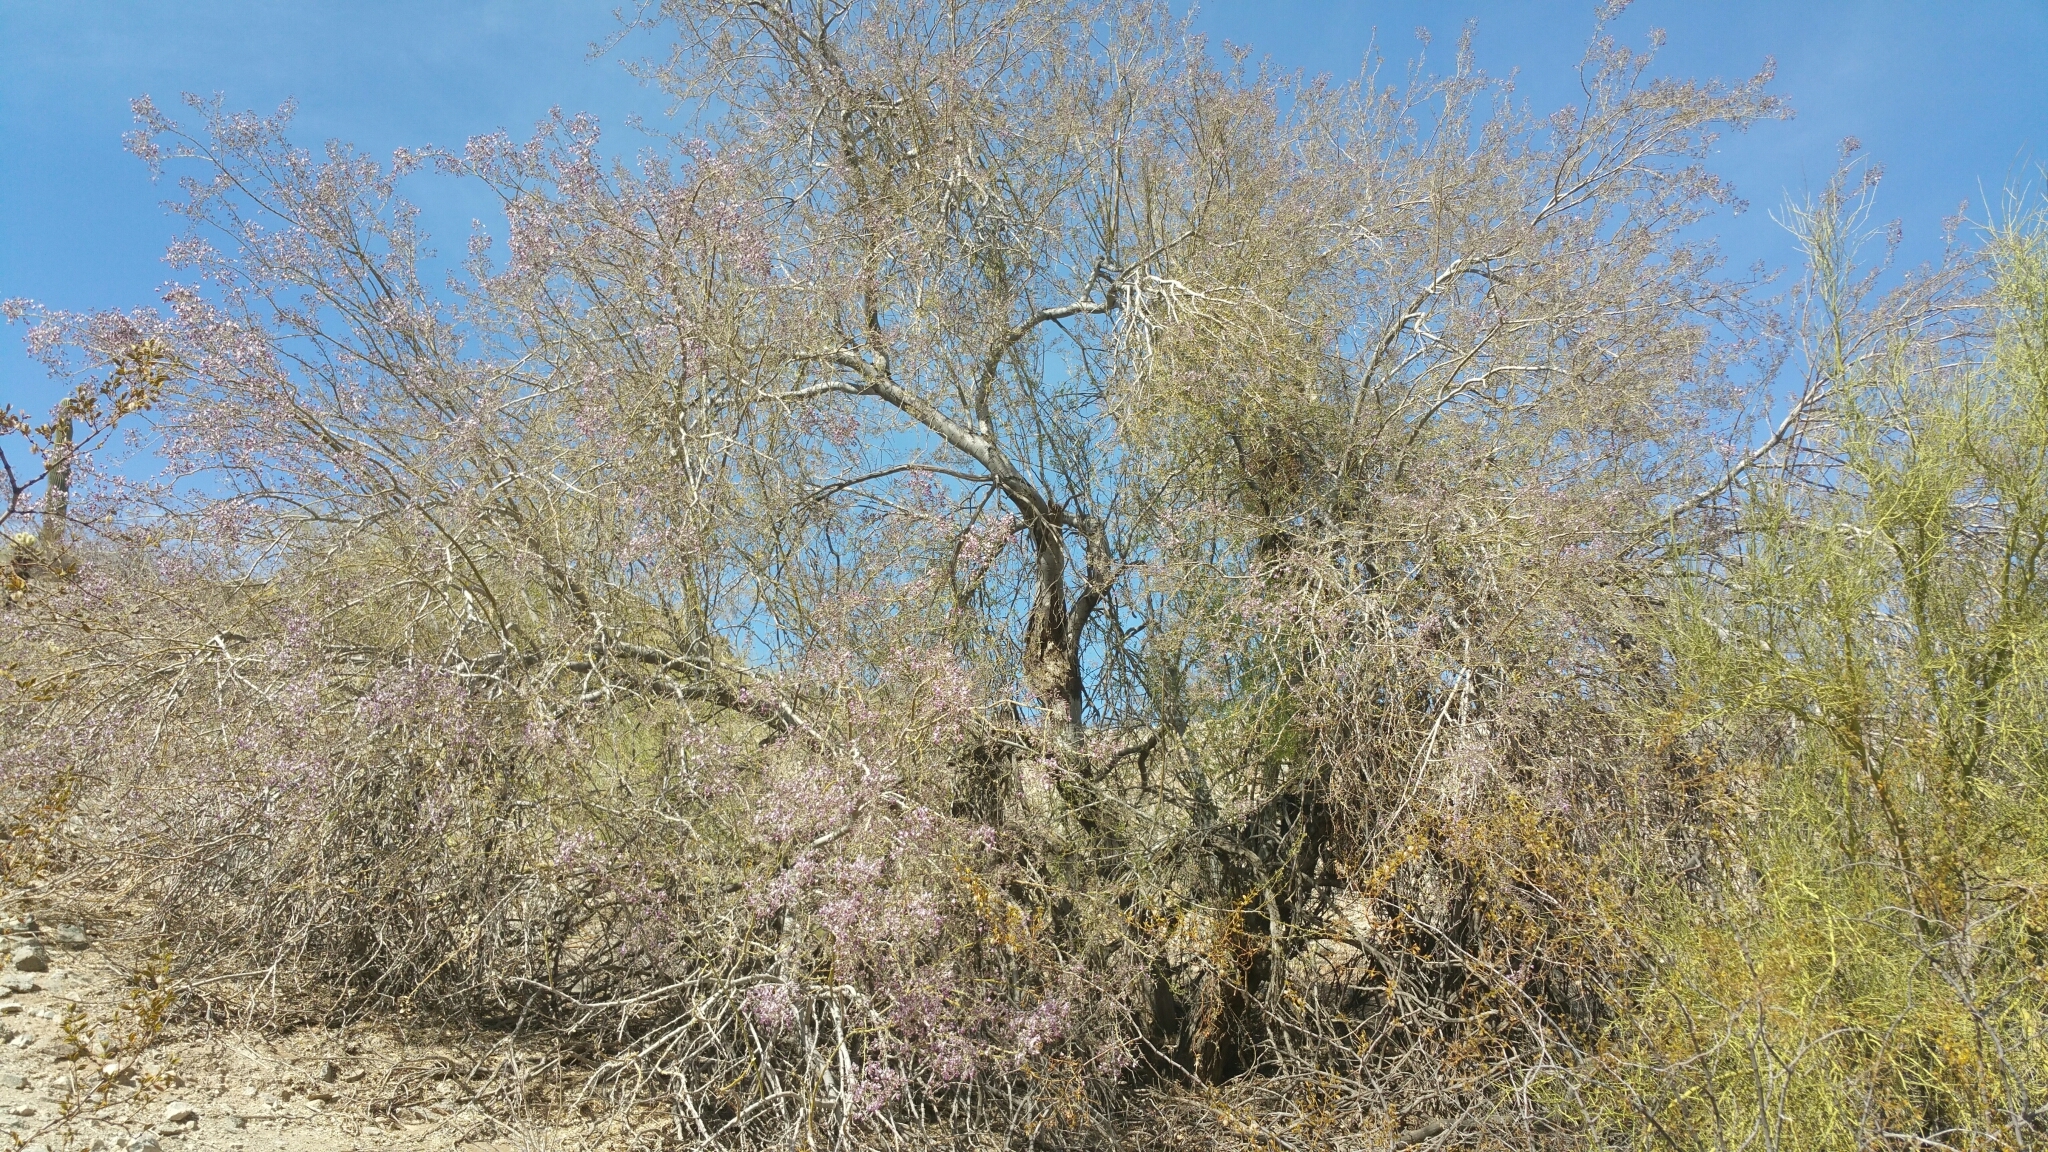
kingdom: Plantae
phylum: Tracheophyta
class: Magnoliopsida
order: Fabales
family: Fabaceae
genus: Olneya
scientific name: Olneya tesota
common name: Desert ironwood
